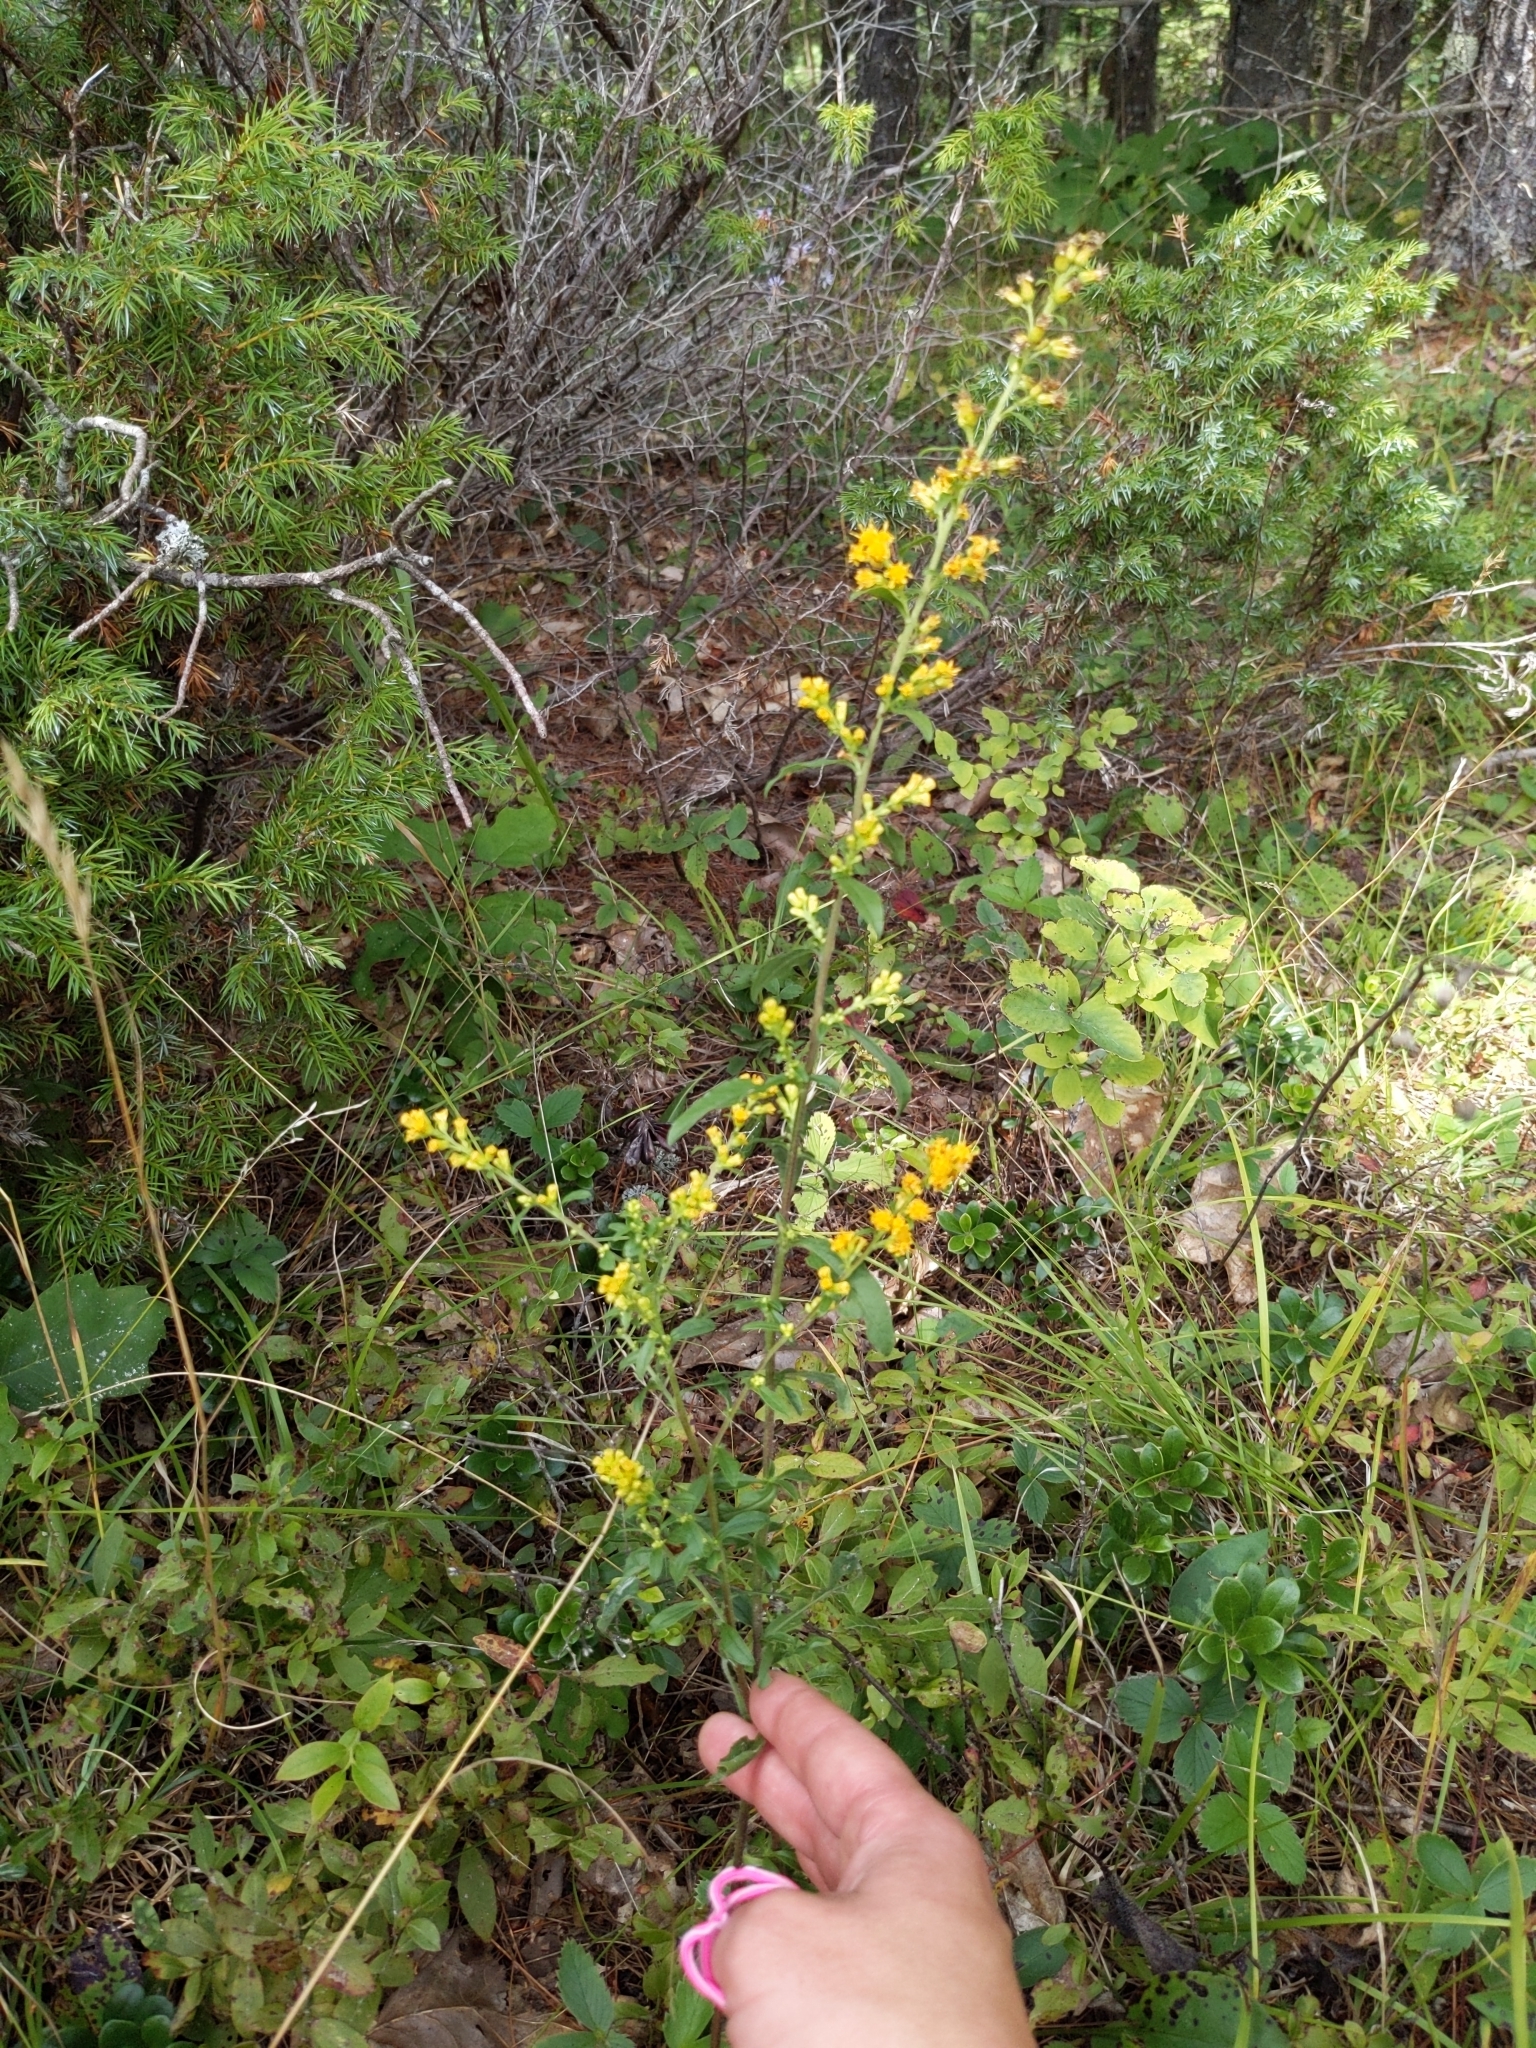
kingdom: Plantae
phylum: Tracheophyta
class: Magnoliopsida
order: Asterales
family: Asteraceae
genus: Solidago
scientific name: Solidago hispida
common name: Hairy goldenrod
